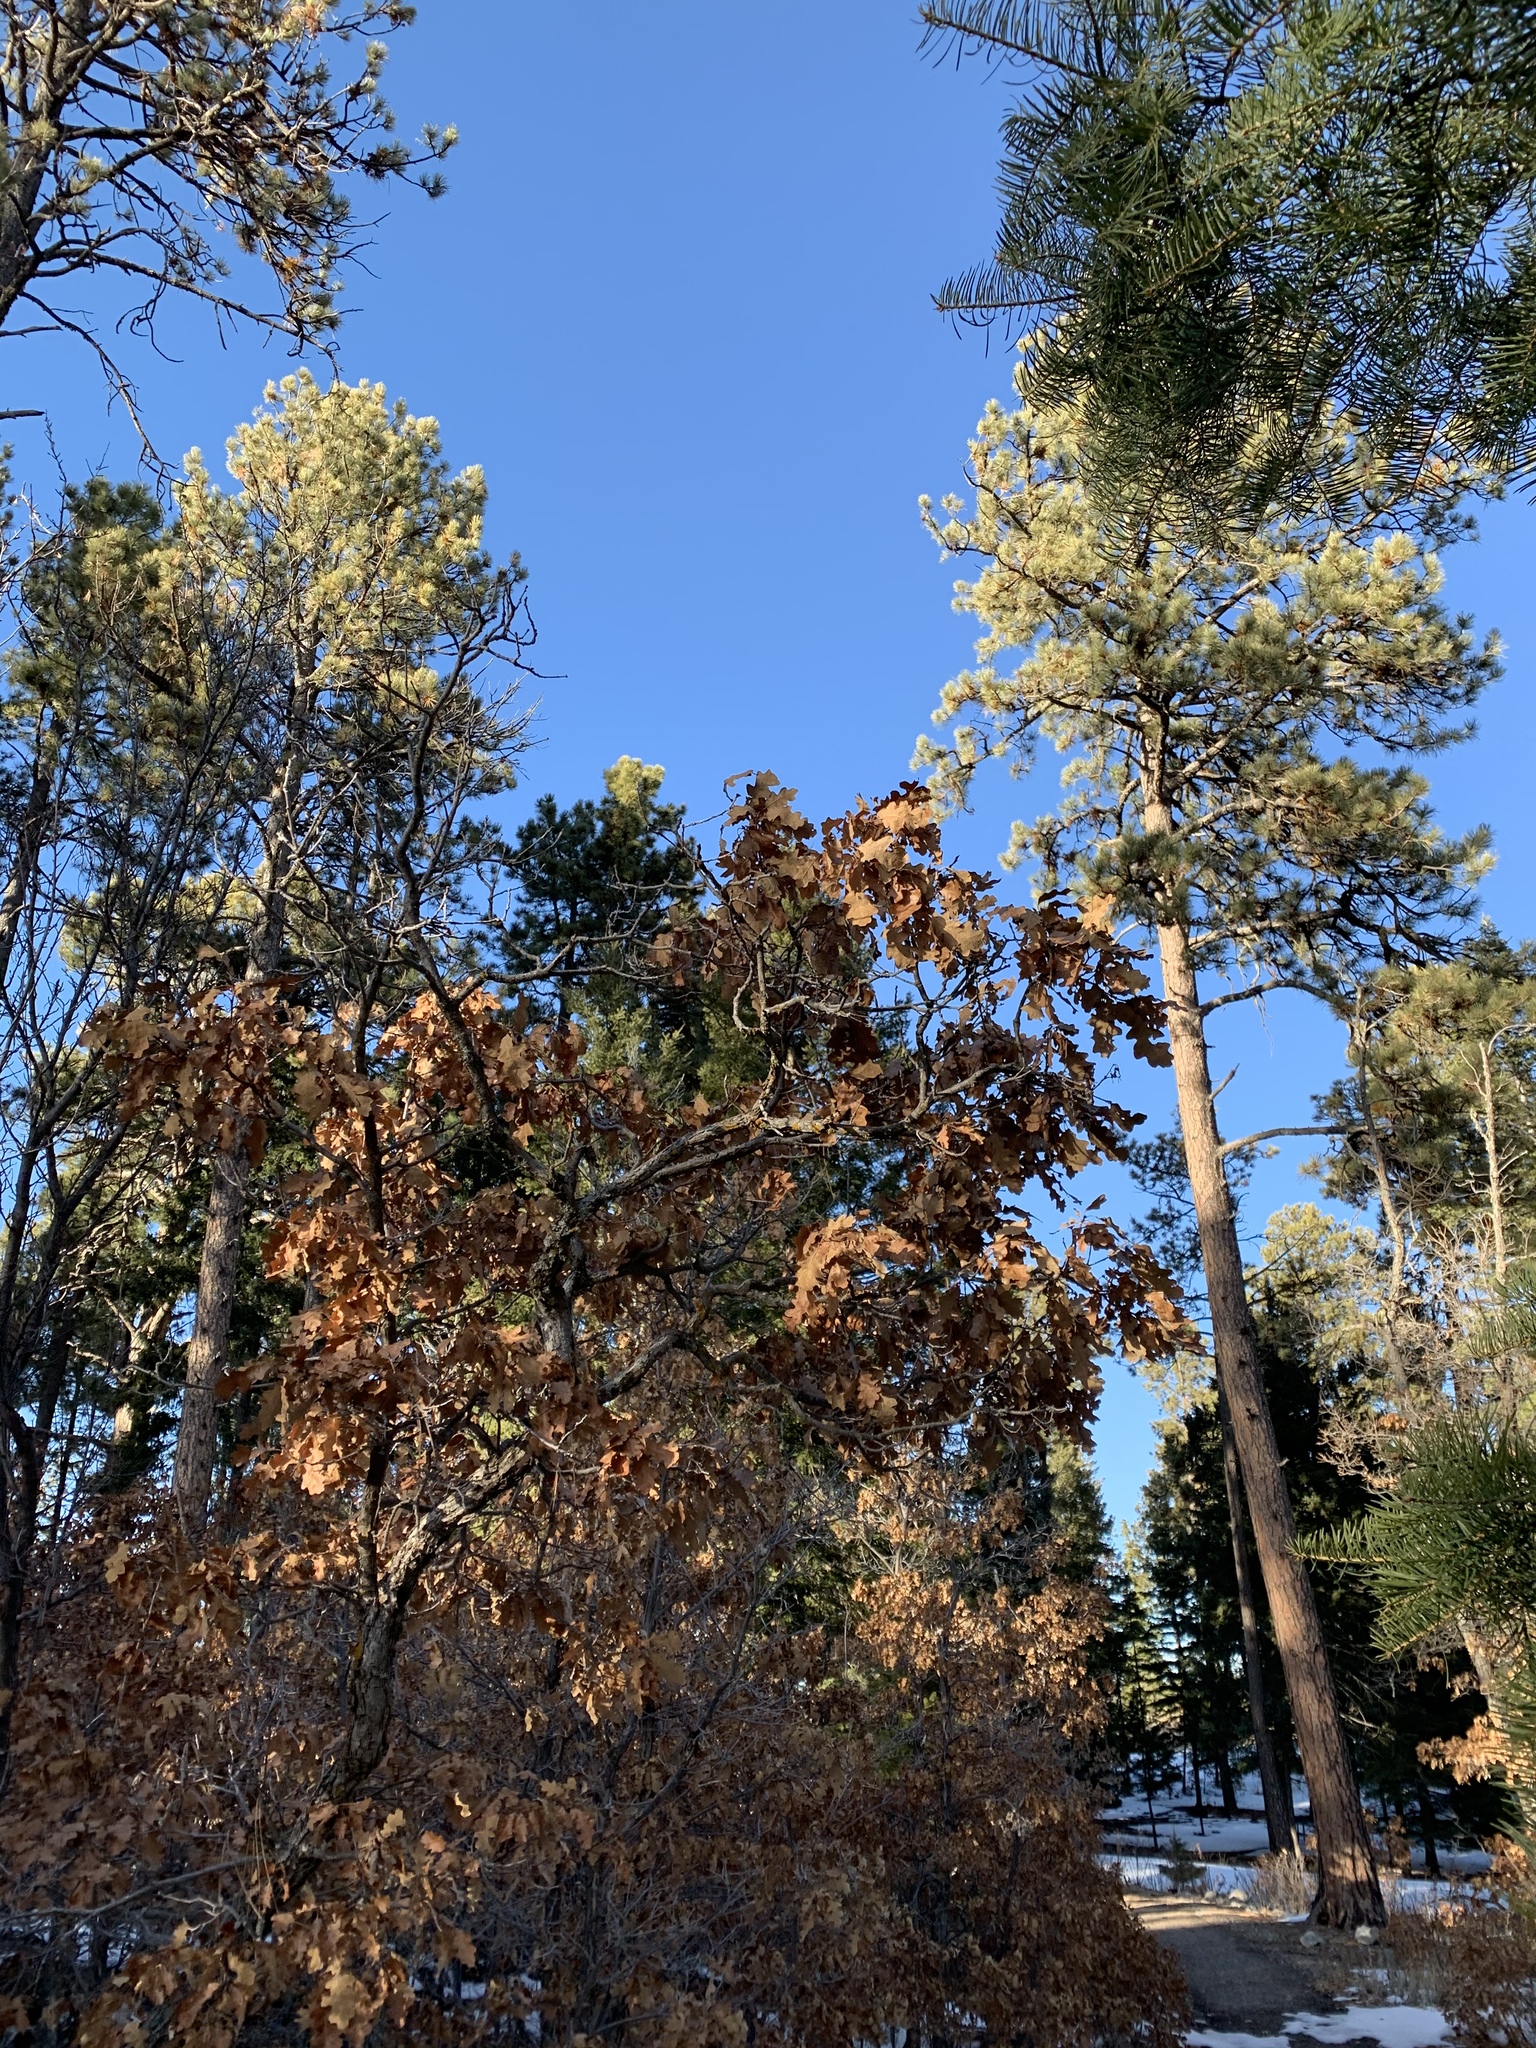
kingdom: Plantae
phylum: Tracheophyta
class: Magnoliopsida
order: Fagales
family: Fagaceae
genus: Quercus
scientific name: Quercus gambelii
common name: Gambel oak
